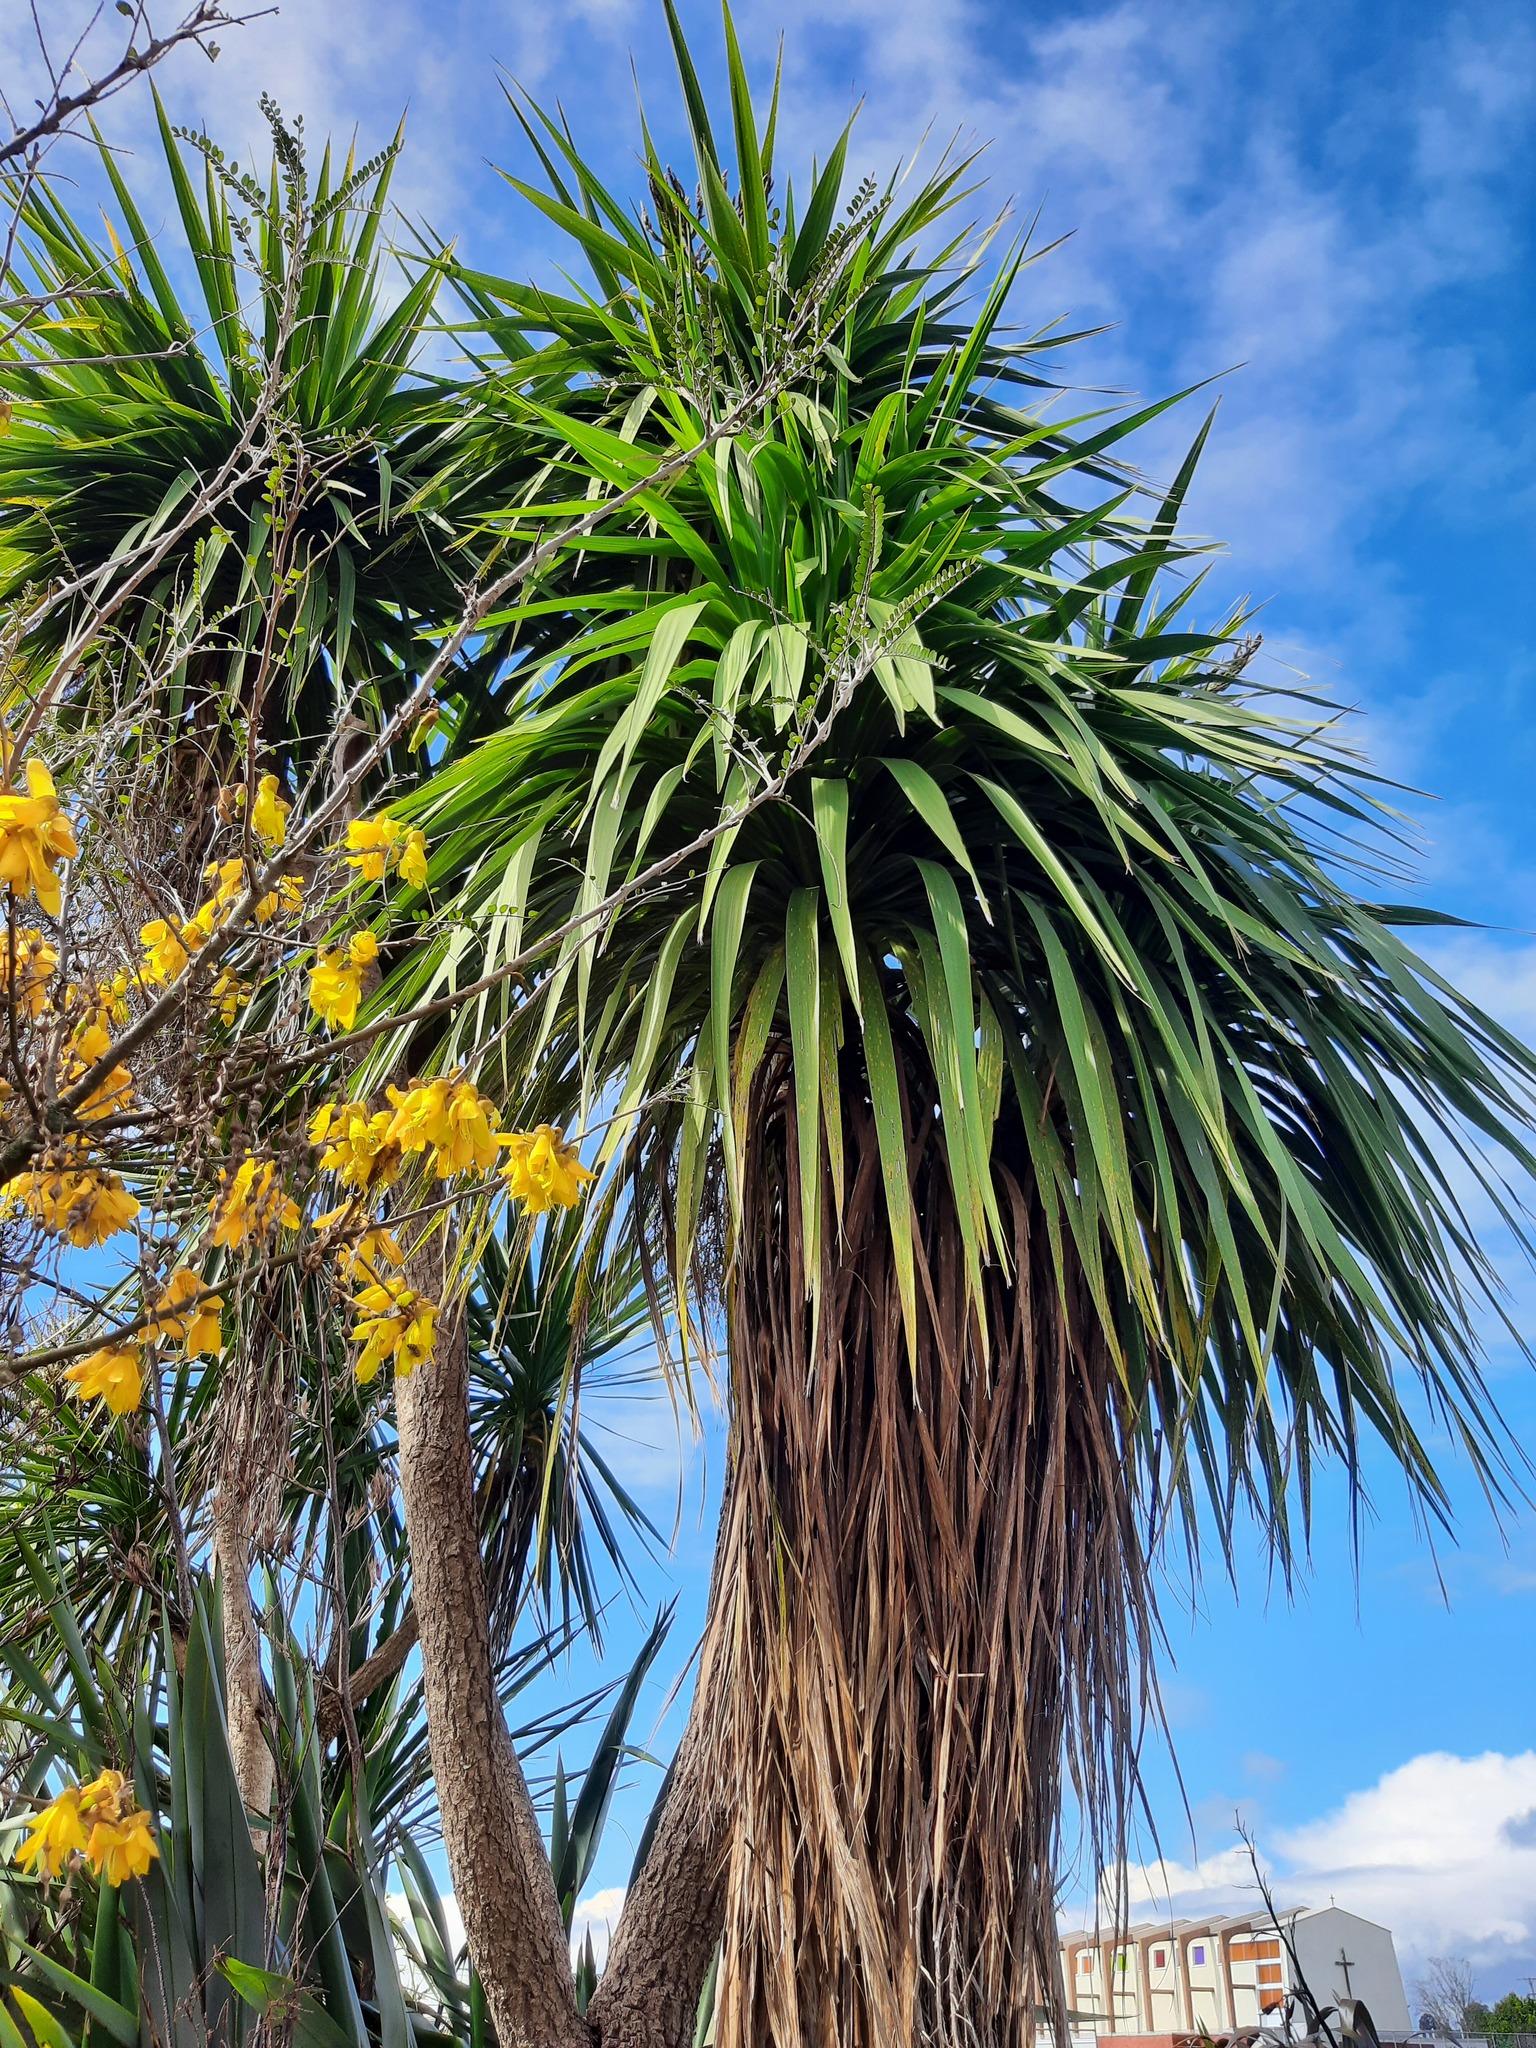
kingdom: Plantae
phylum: Tracheophyta
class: Liliopsida
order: Asparagales
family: Asparagaceae
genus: Cordyline
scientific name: Cordyline australis
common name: Cabbage-palm
